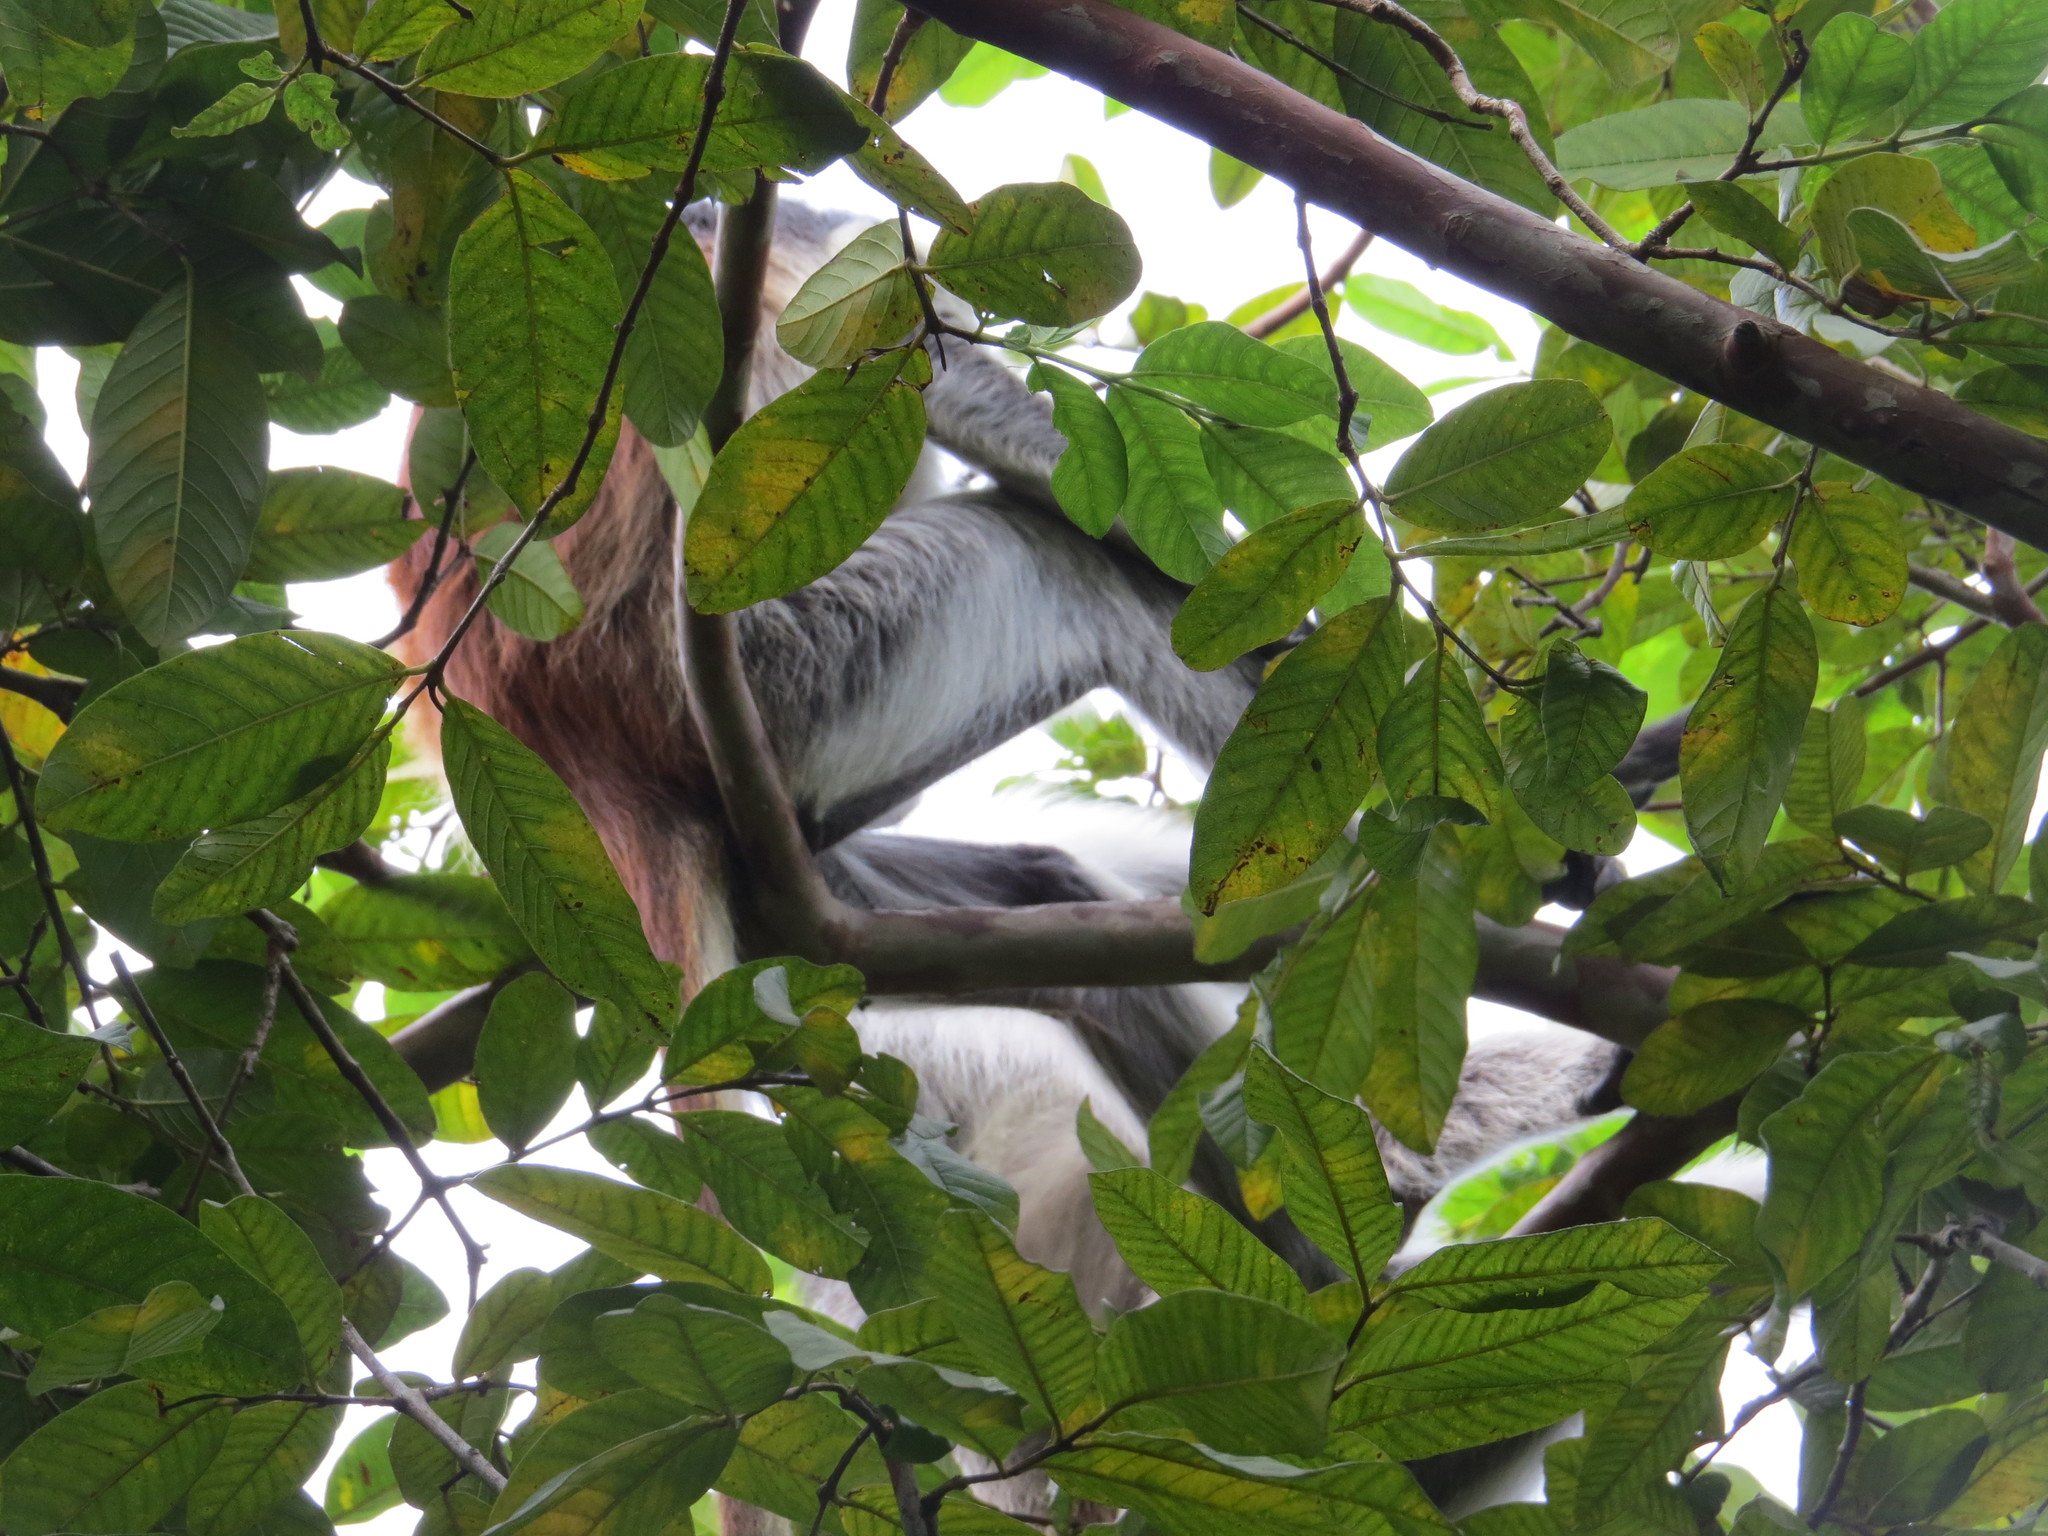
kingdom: Animalia
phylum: Chordata
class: Mammalia
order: Primates
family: Cercopithecidae
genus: Piliocolobus
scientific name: Piliocolobus kirkii
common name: Zanzibar red colobus
